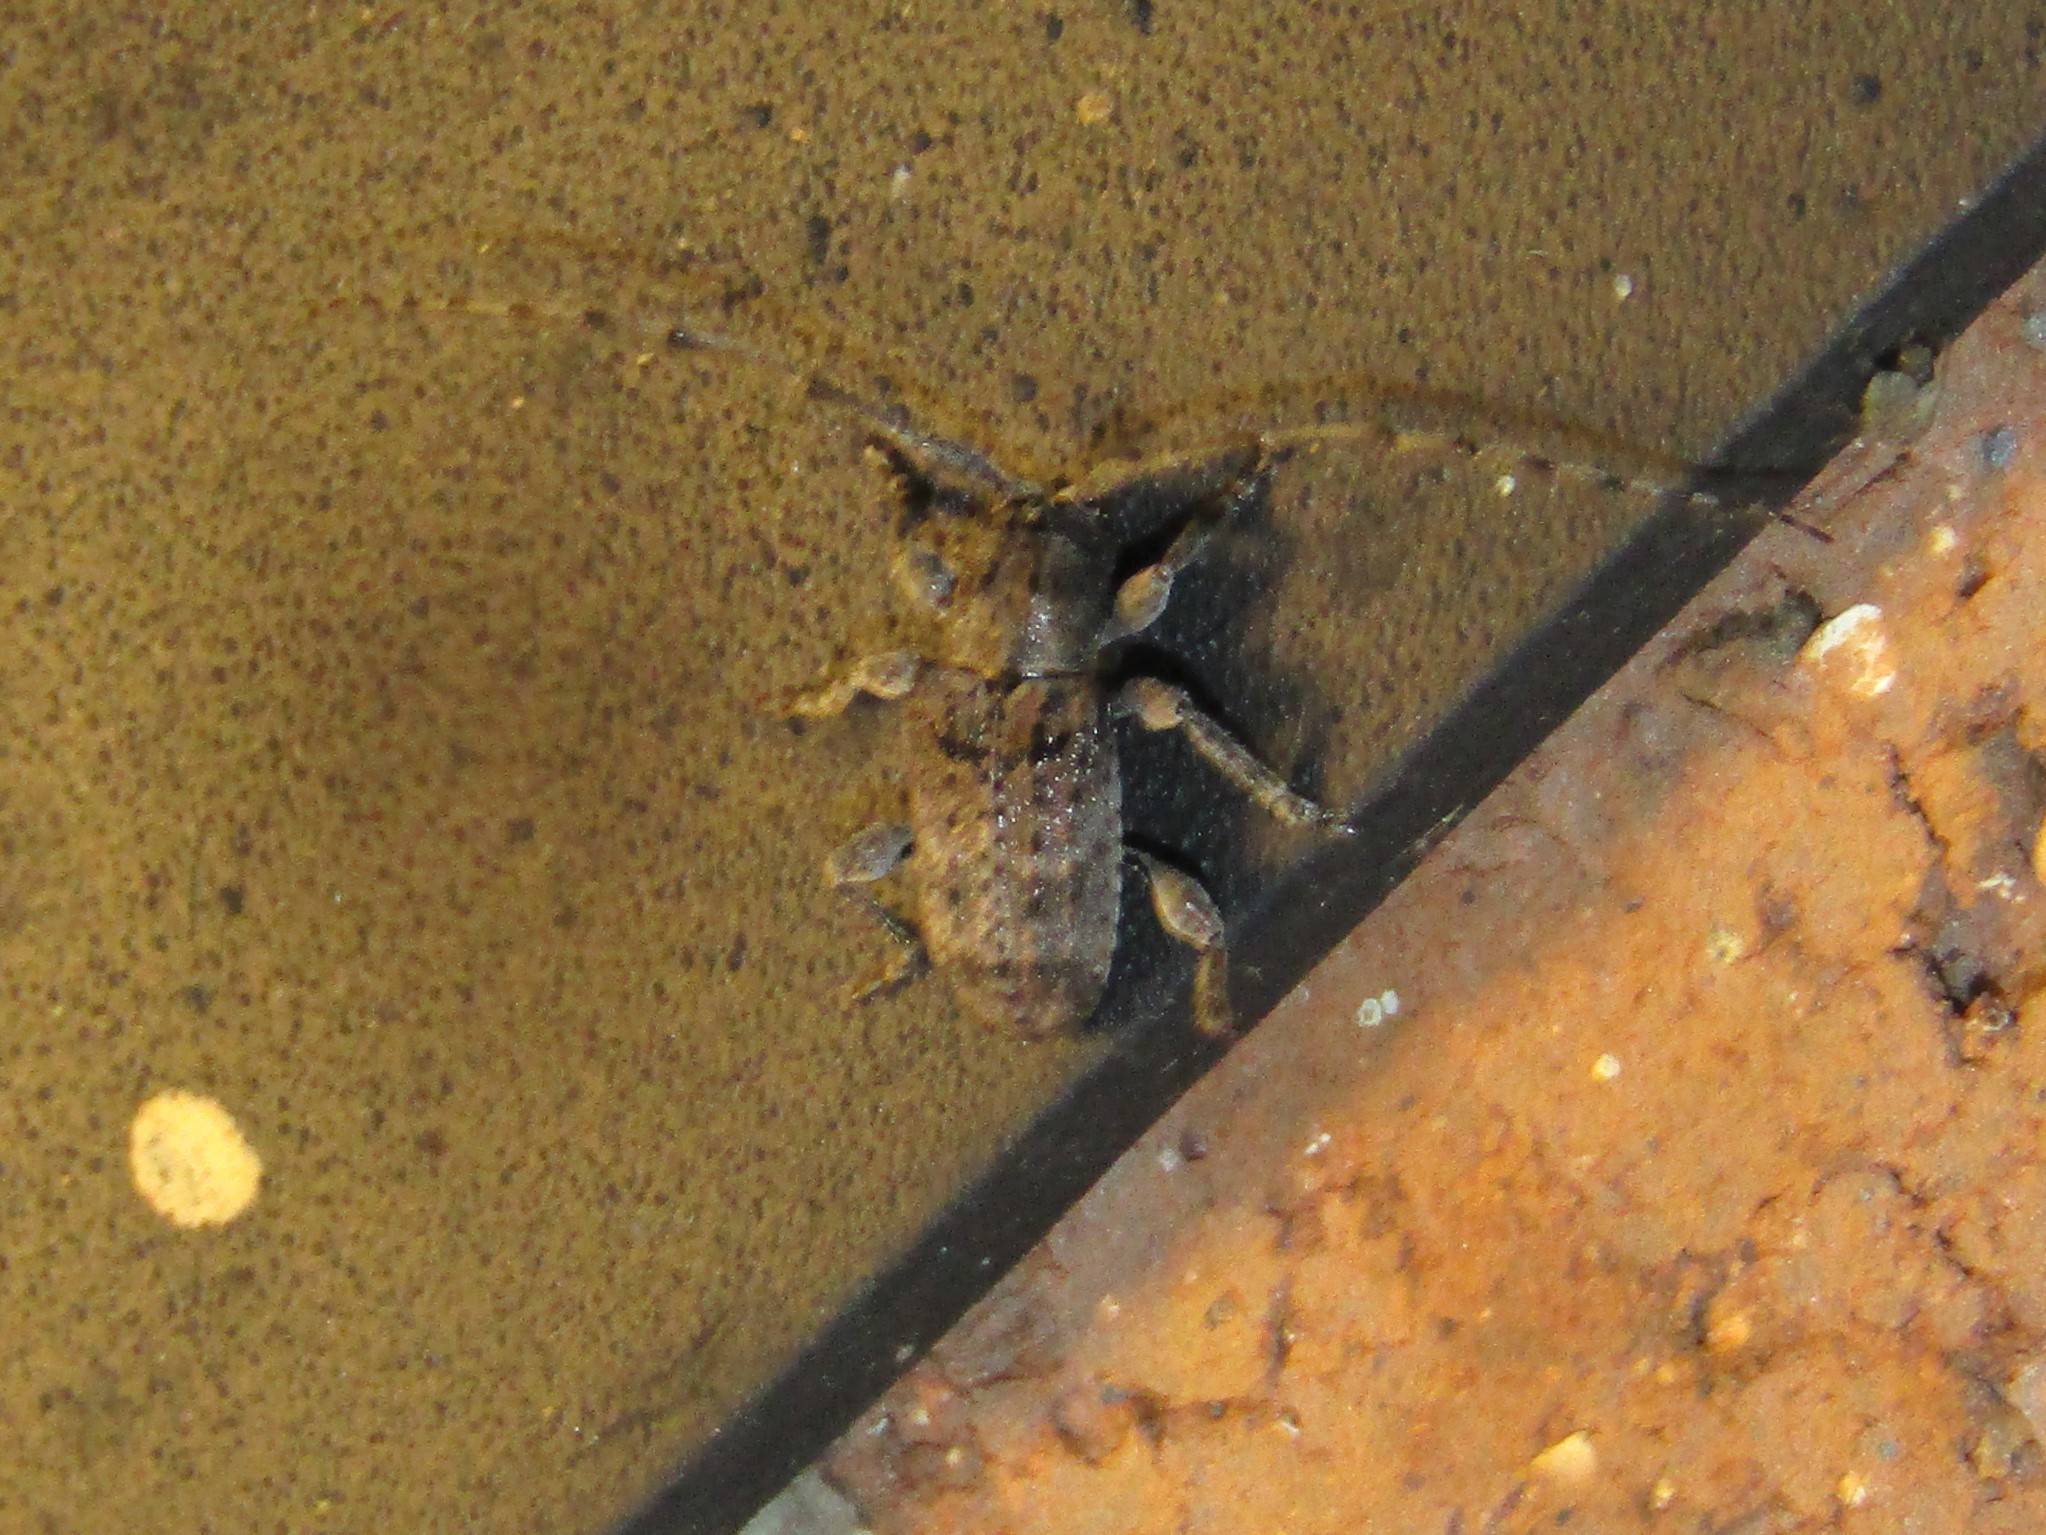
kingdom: Animalia
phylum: Arthropoda
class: Insecta
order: Coleoptera
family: Cerambycidae
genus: Ecyrus
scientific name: Ecyrus dasycerus
